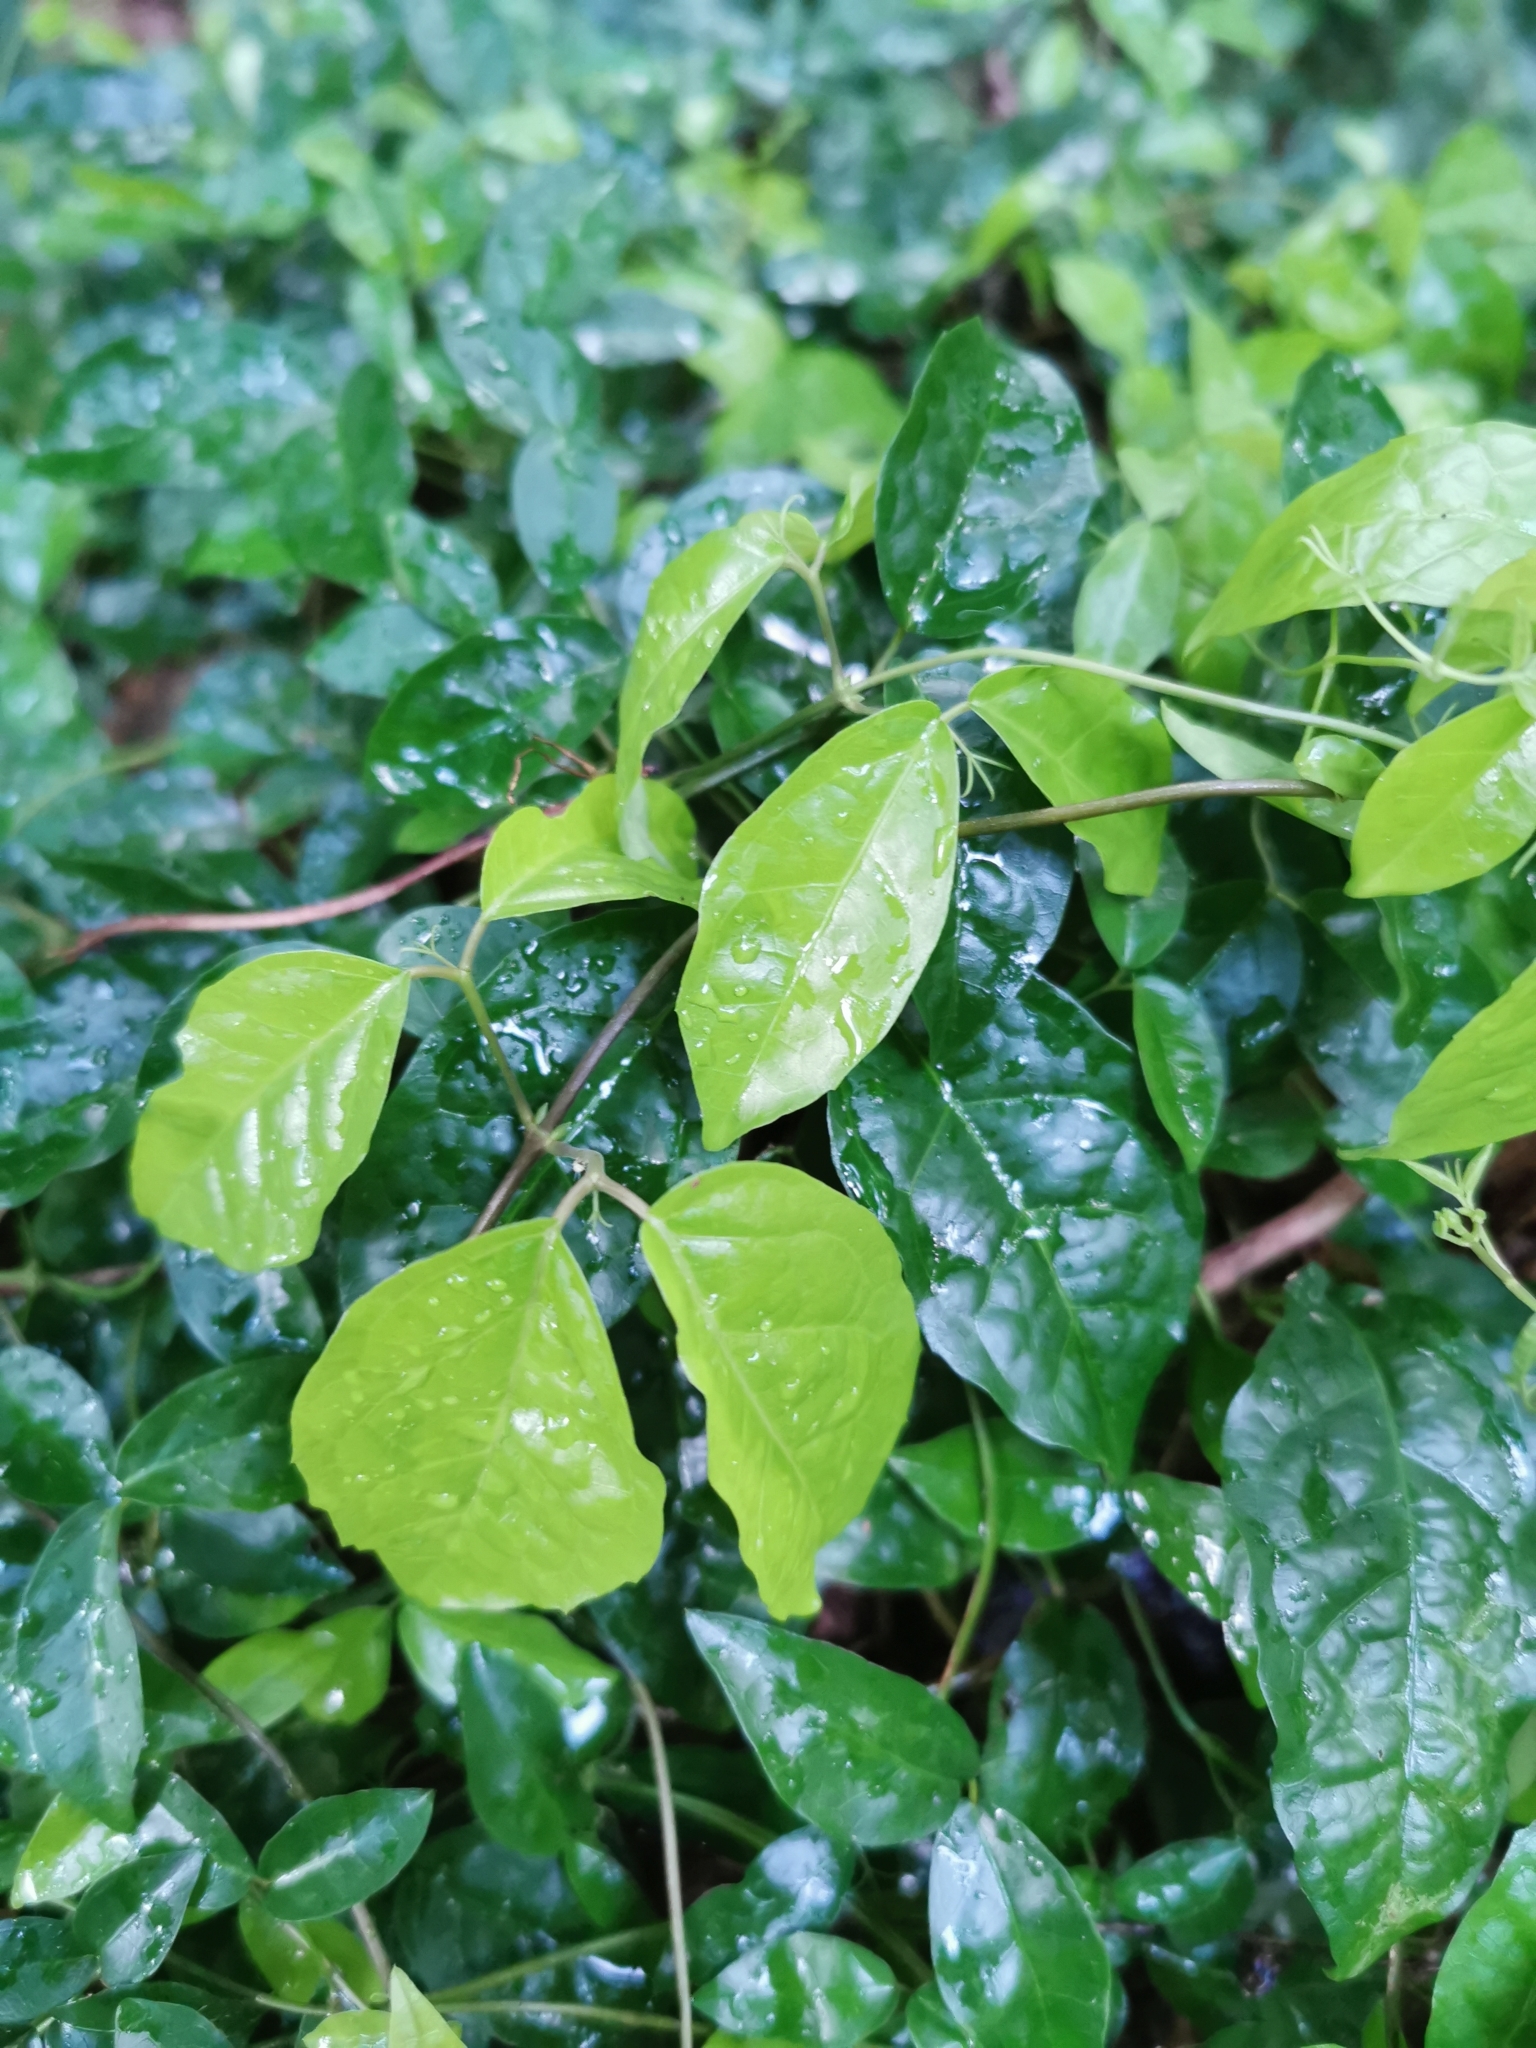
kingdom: Plantae
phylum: Tracheophyta
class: Magnoliopsida
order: Lamiales
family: Bignoniaceae
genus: Dolichandra
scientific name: Dolichandra unguis-cati
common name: Catclaw vine
